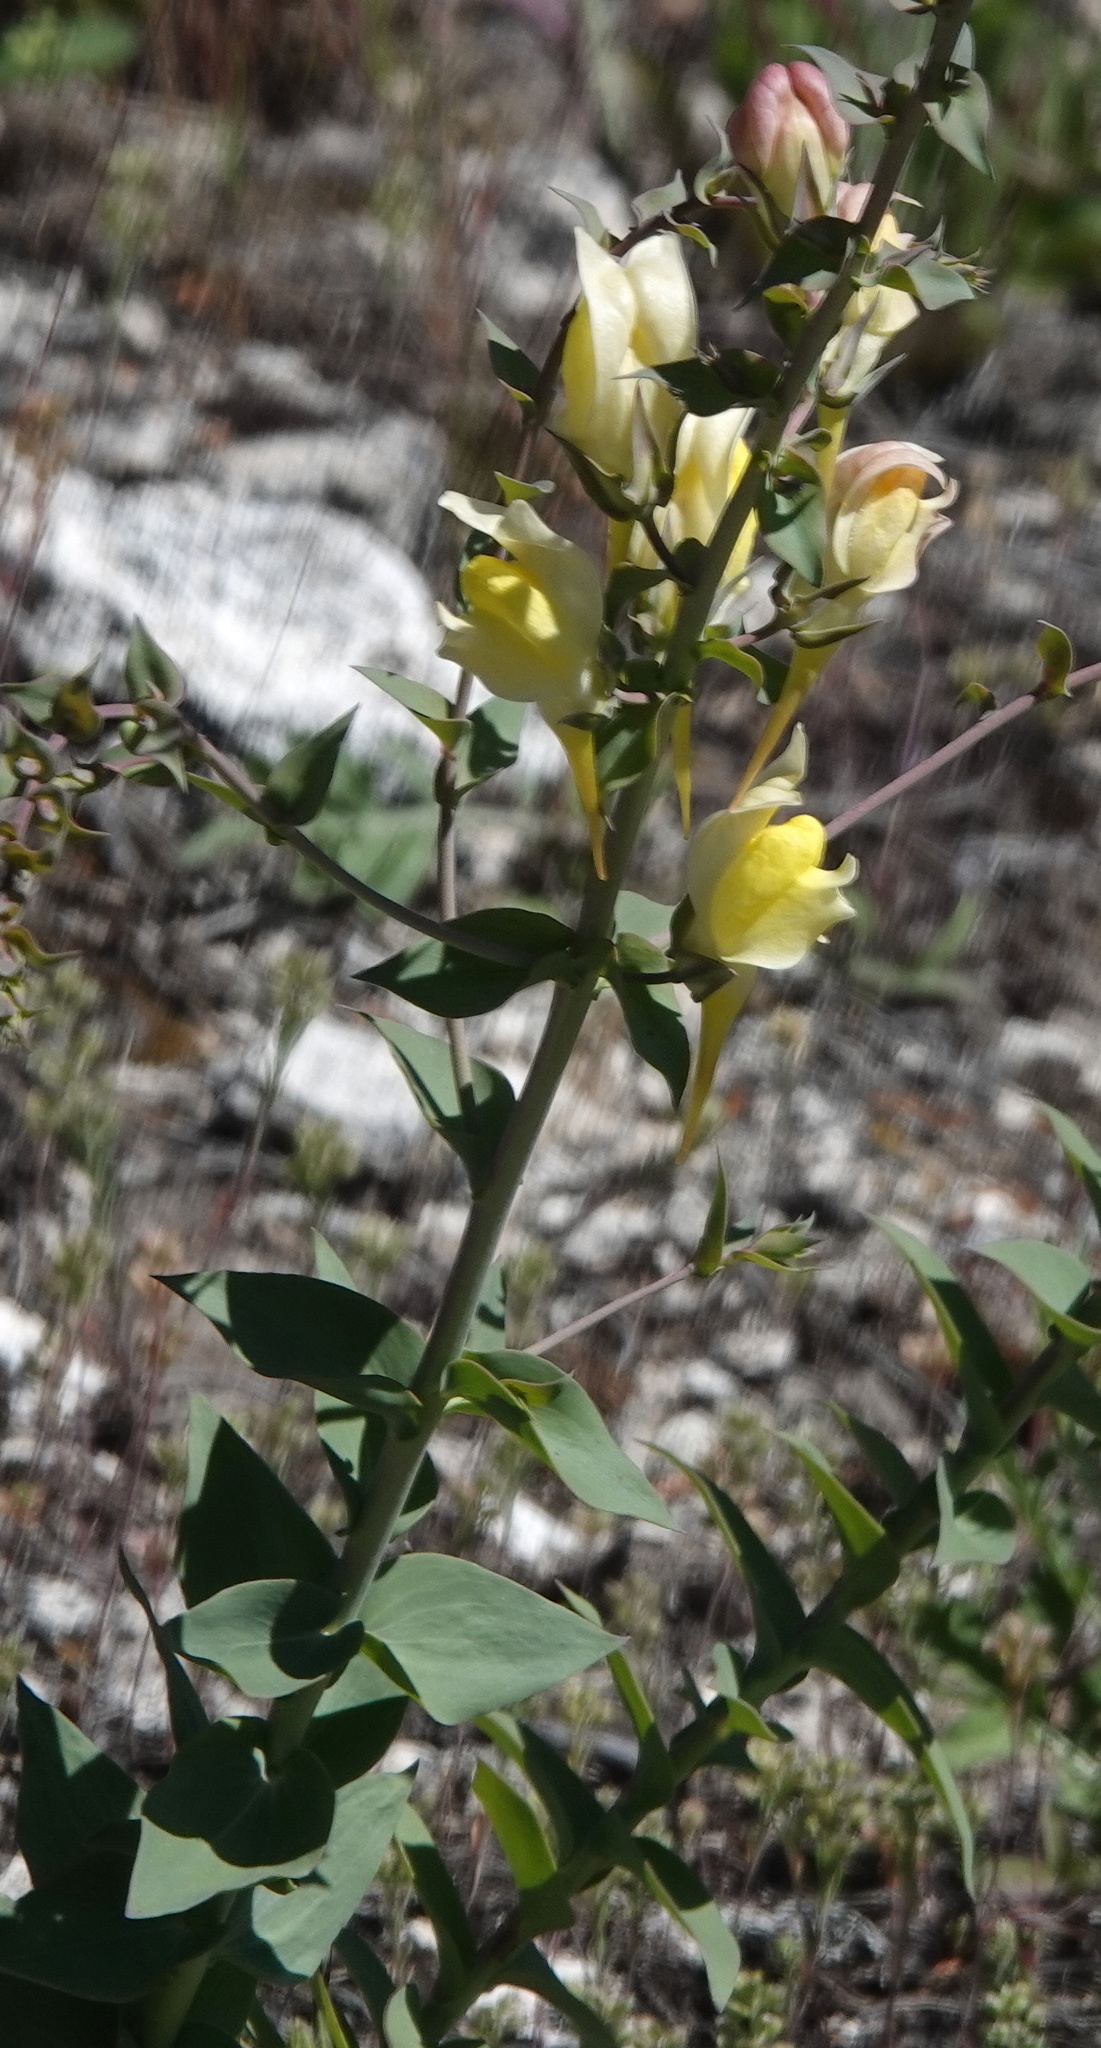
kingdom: Plantae
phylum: Tracheophyta
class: Magnoliopsida
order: Lamiales
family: Plantaginaceae
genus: Linaria
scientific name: Linaria dalmatica
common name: Dalmatian toadflax
